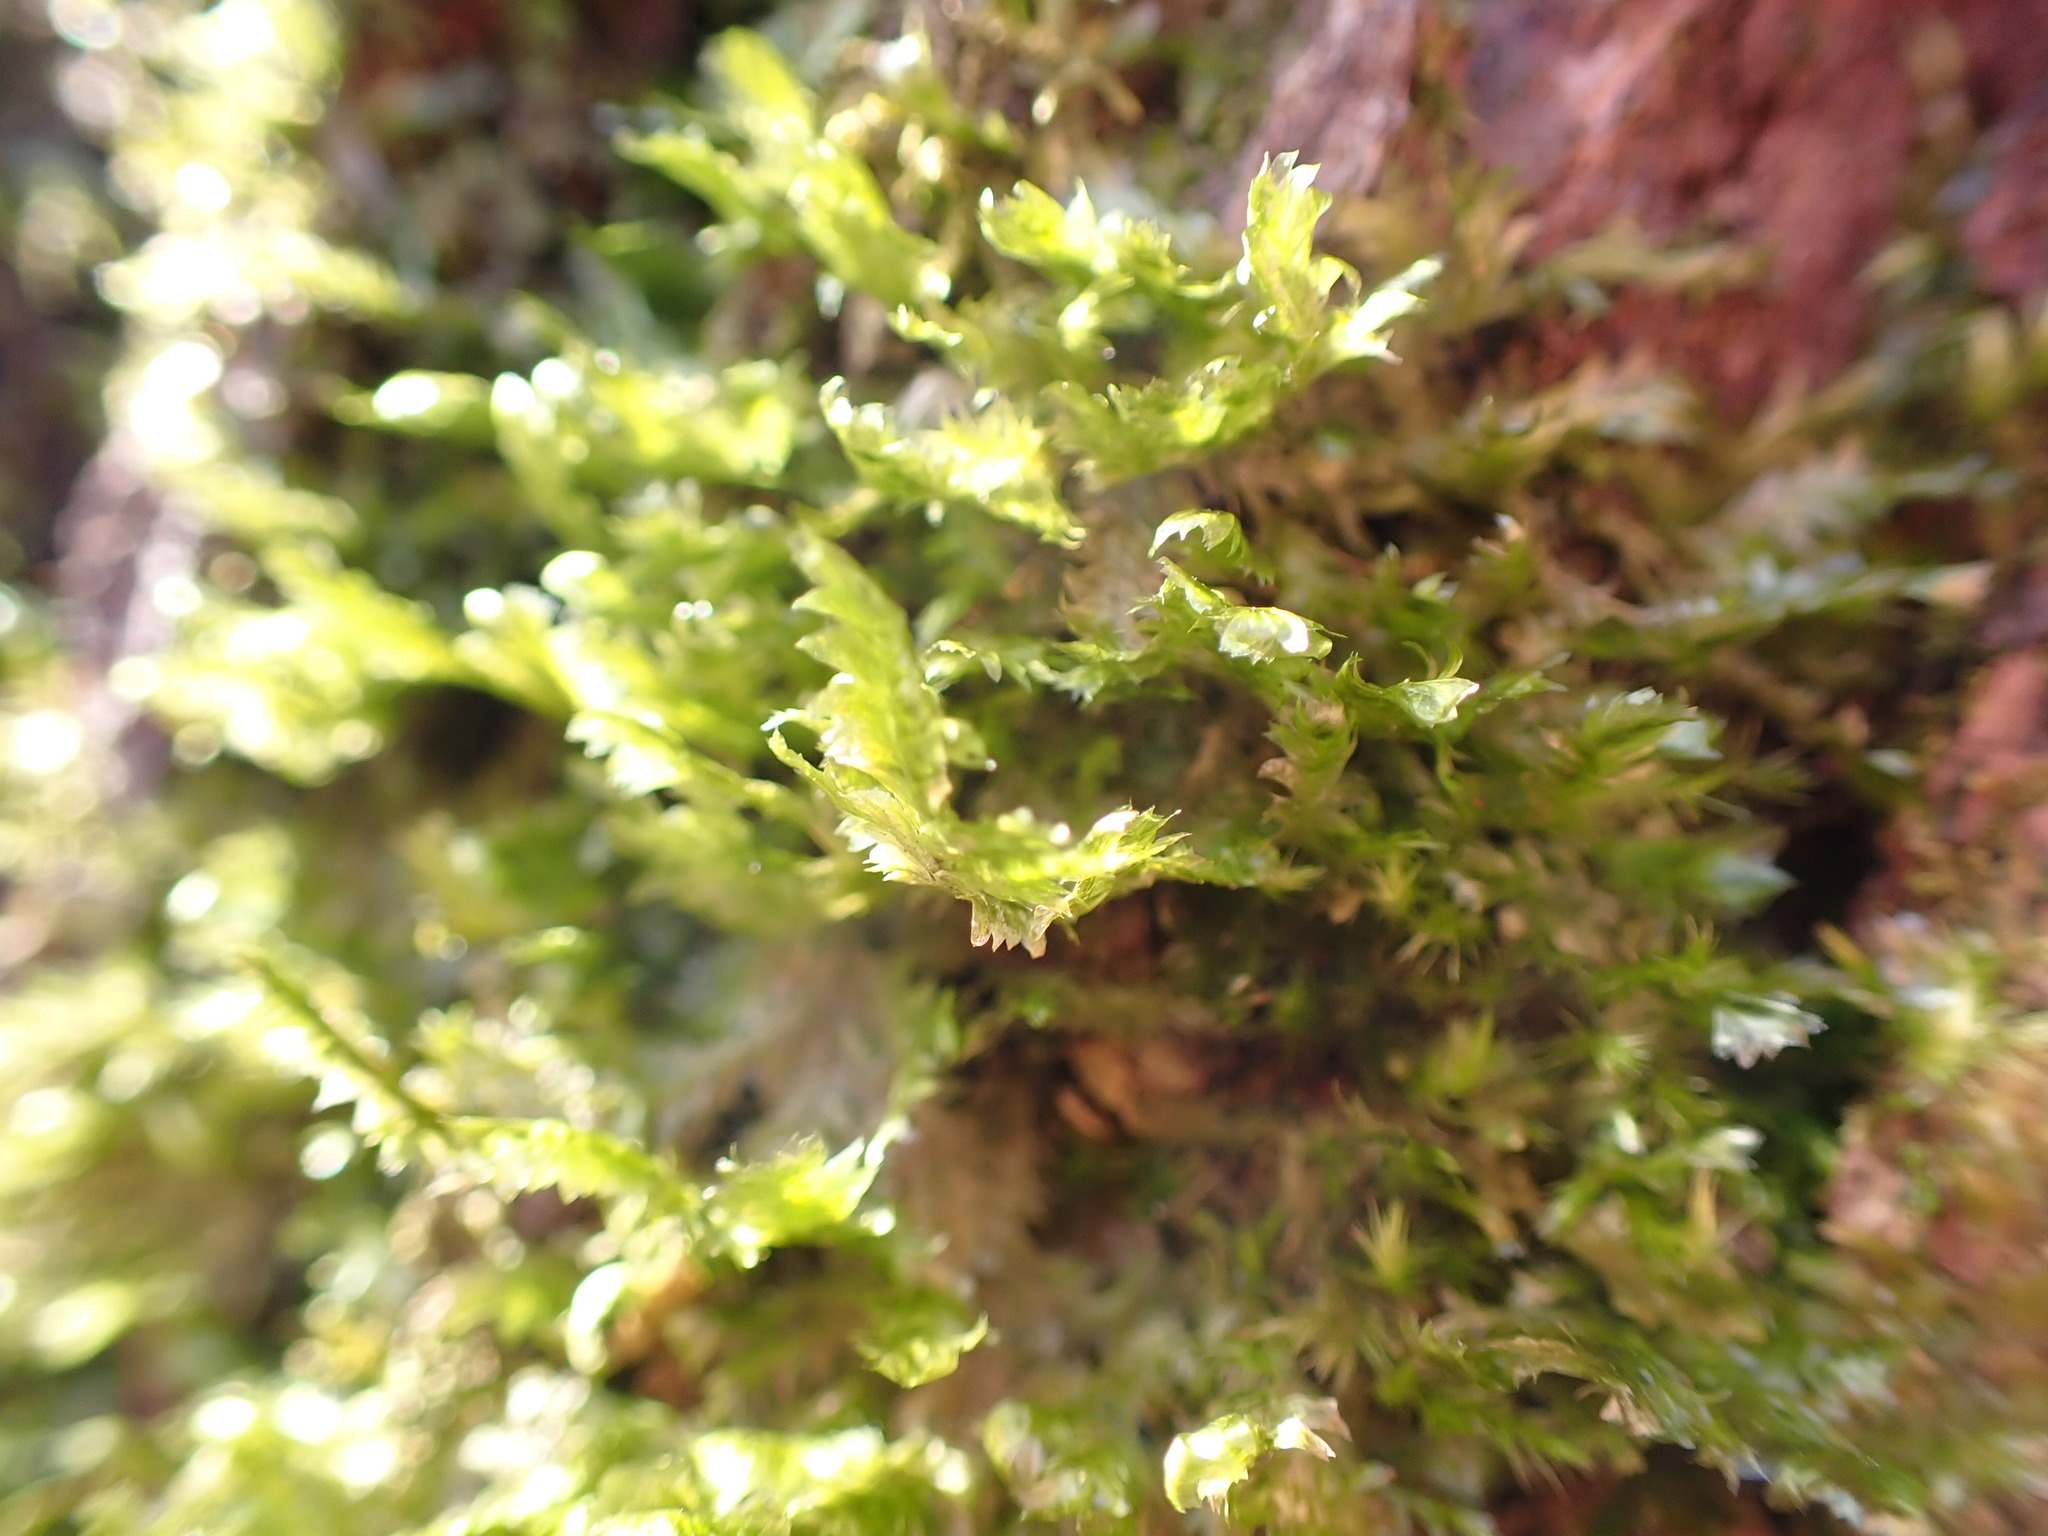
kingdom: Plantae
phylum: Bryophyta
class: Bryopsida
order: Hypnales
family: Neckeraceae
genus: Neckera
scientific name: Neckera pennata
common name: Feathery neckera
